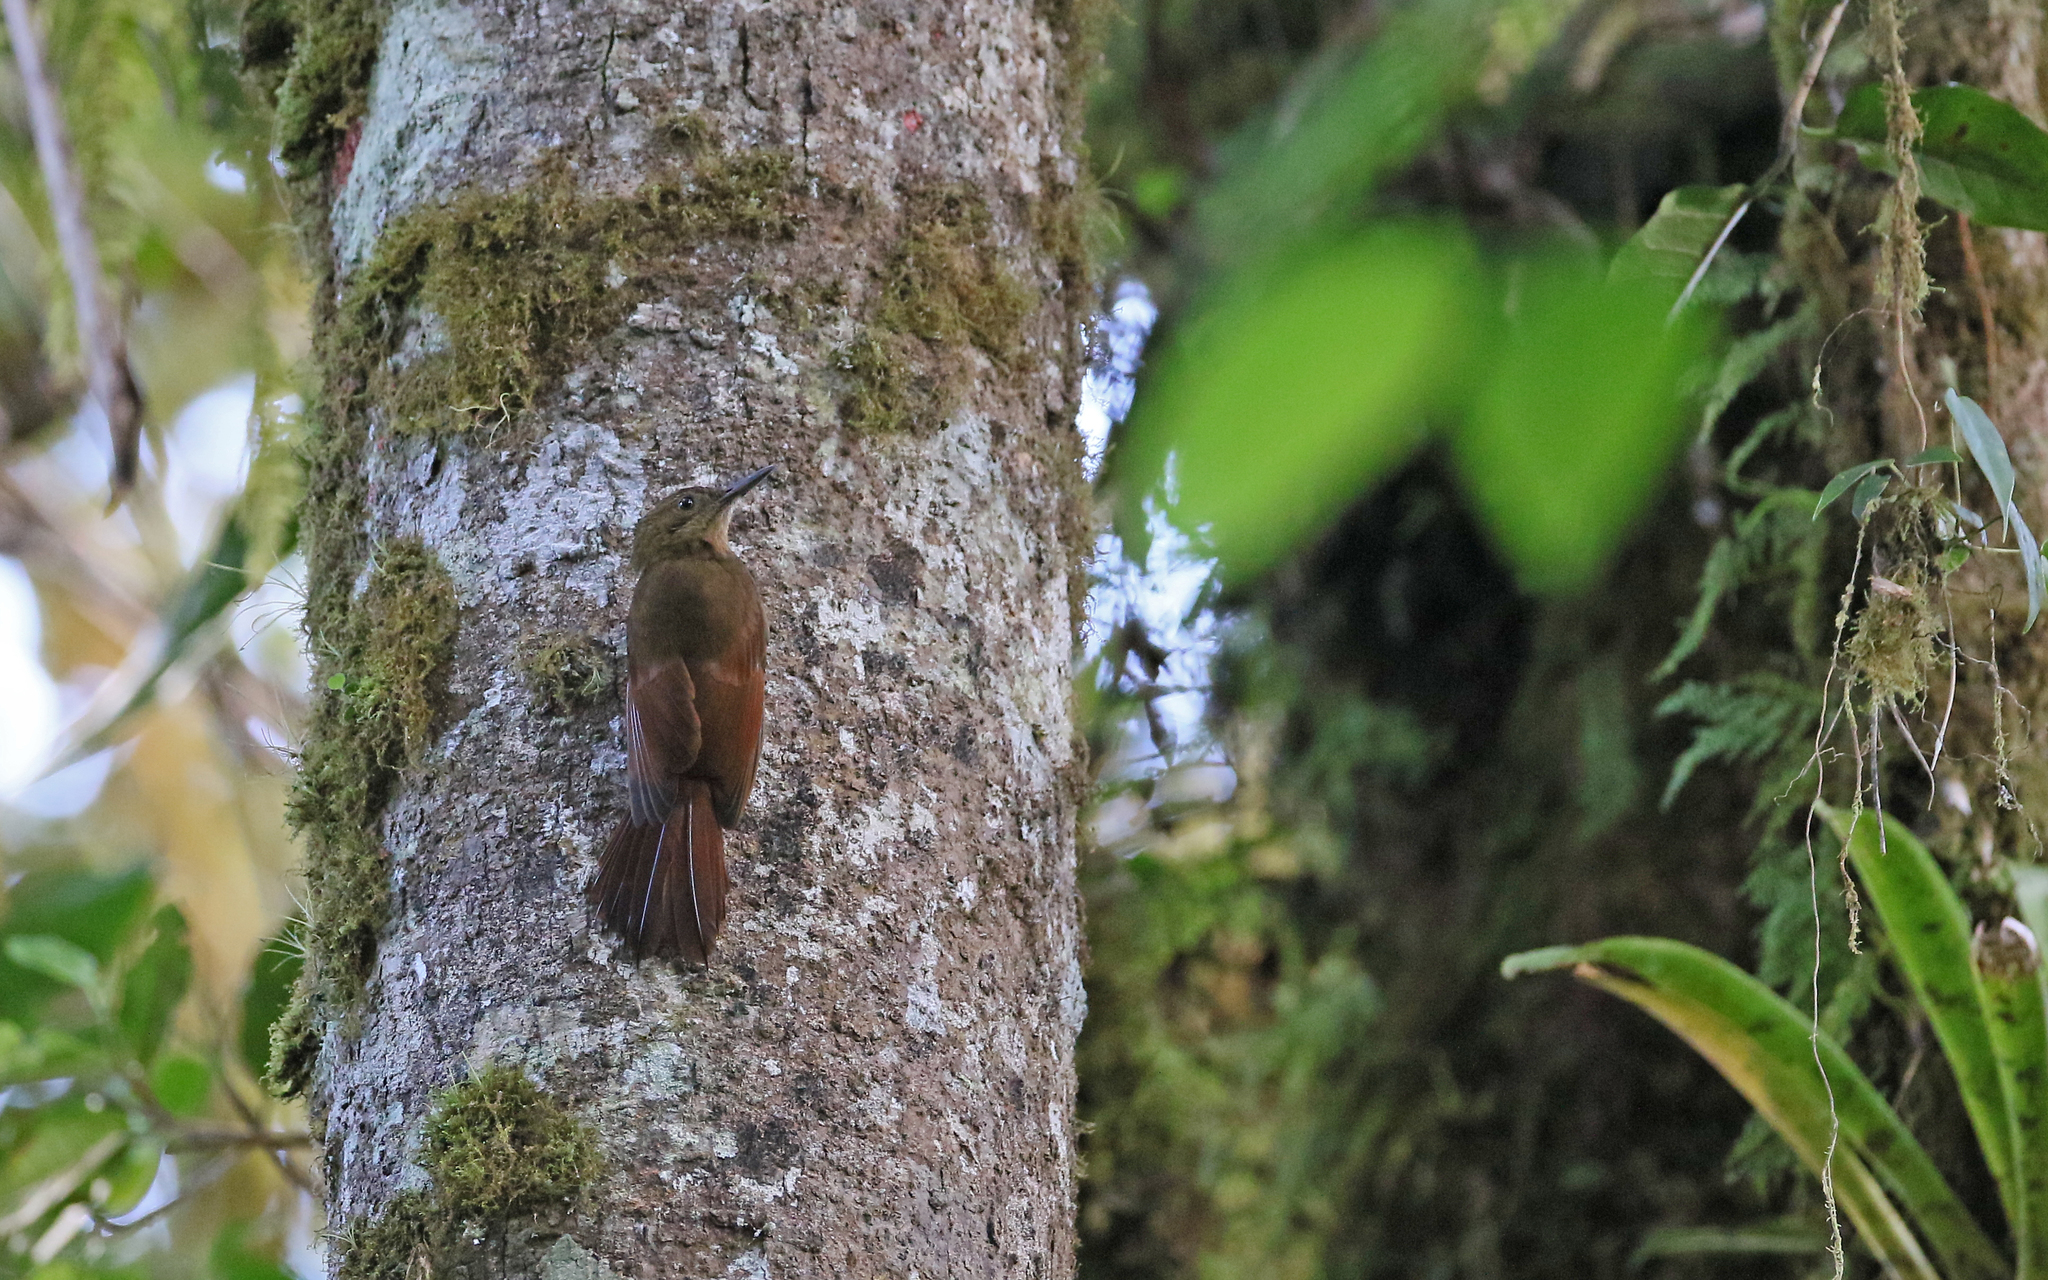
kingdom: Animalia
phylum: Chordata
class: Aves
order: Passeriformes
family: Furnariidae
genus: Dendrocincla
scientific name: Dendrocincla tyrannina
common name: Tyrannine woodcreeper
